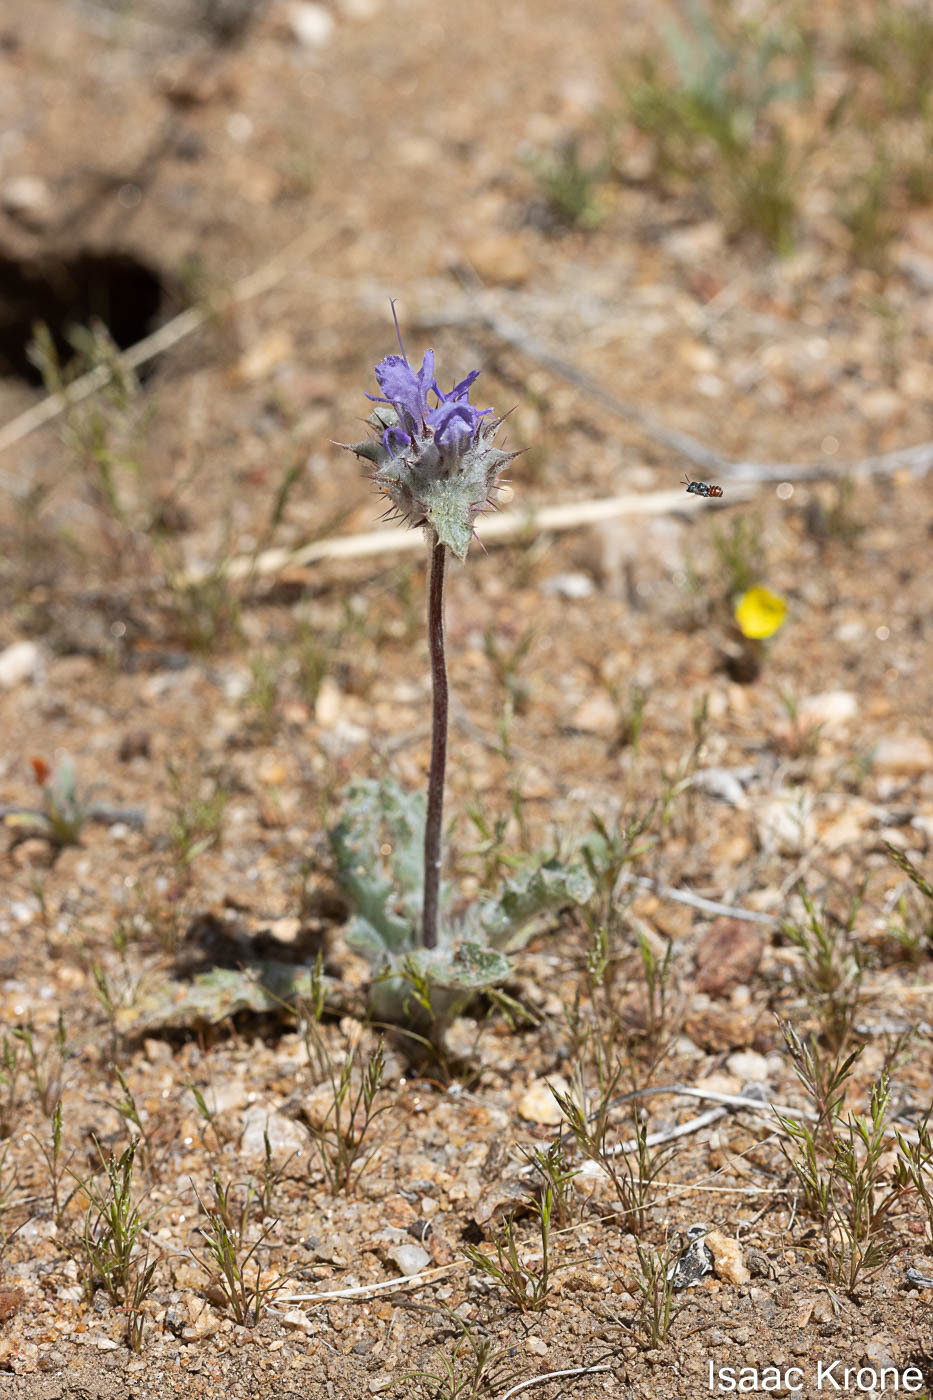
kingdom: Plantae
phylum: Tracheophyta
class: Magnoliopsida
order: Lamiales
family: Lamiaceae
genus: Salvia
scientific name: Salvia carduacea
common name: Thistle sage
